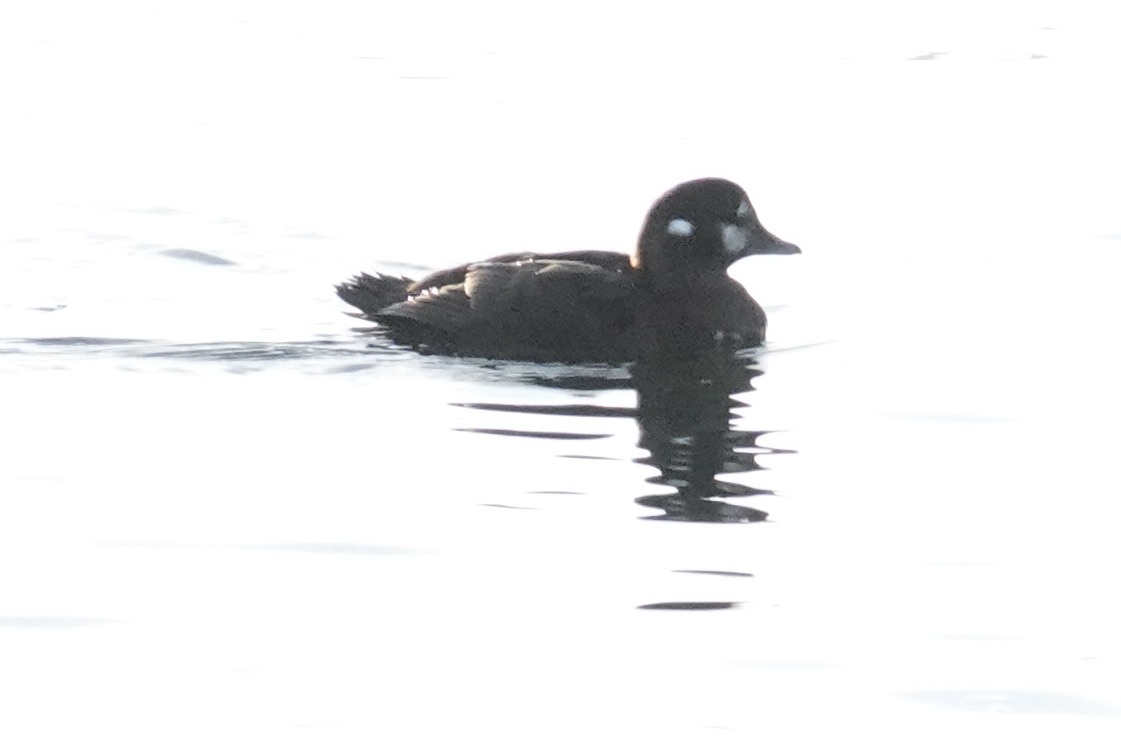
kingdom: Animalia
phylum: Chordata
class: Aves
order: Anseriformes
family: Anatidae
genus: Histrionicus
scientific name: Histrionicus histrionicus
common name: Harlequin duck
